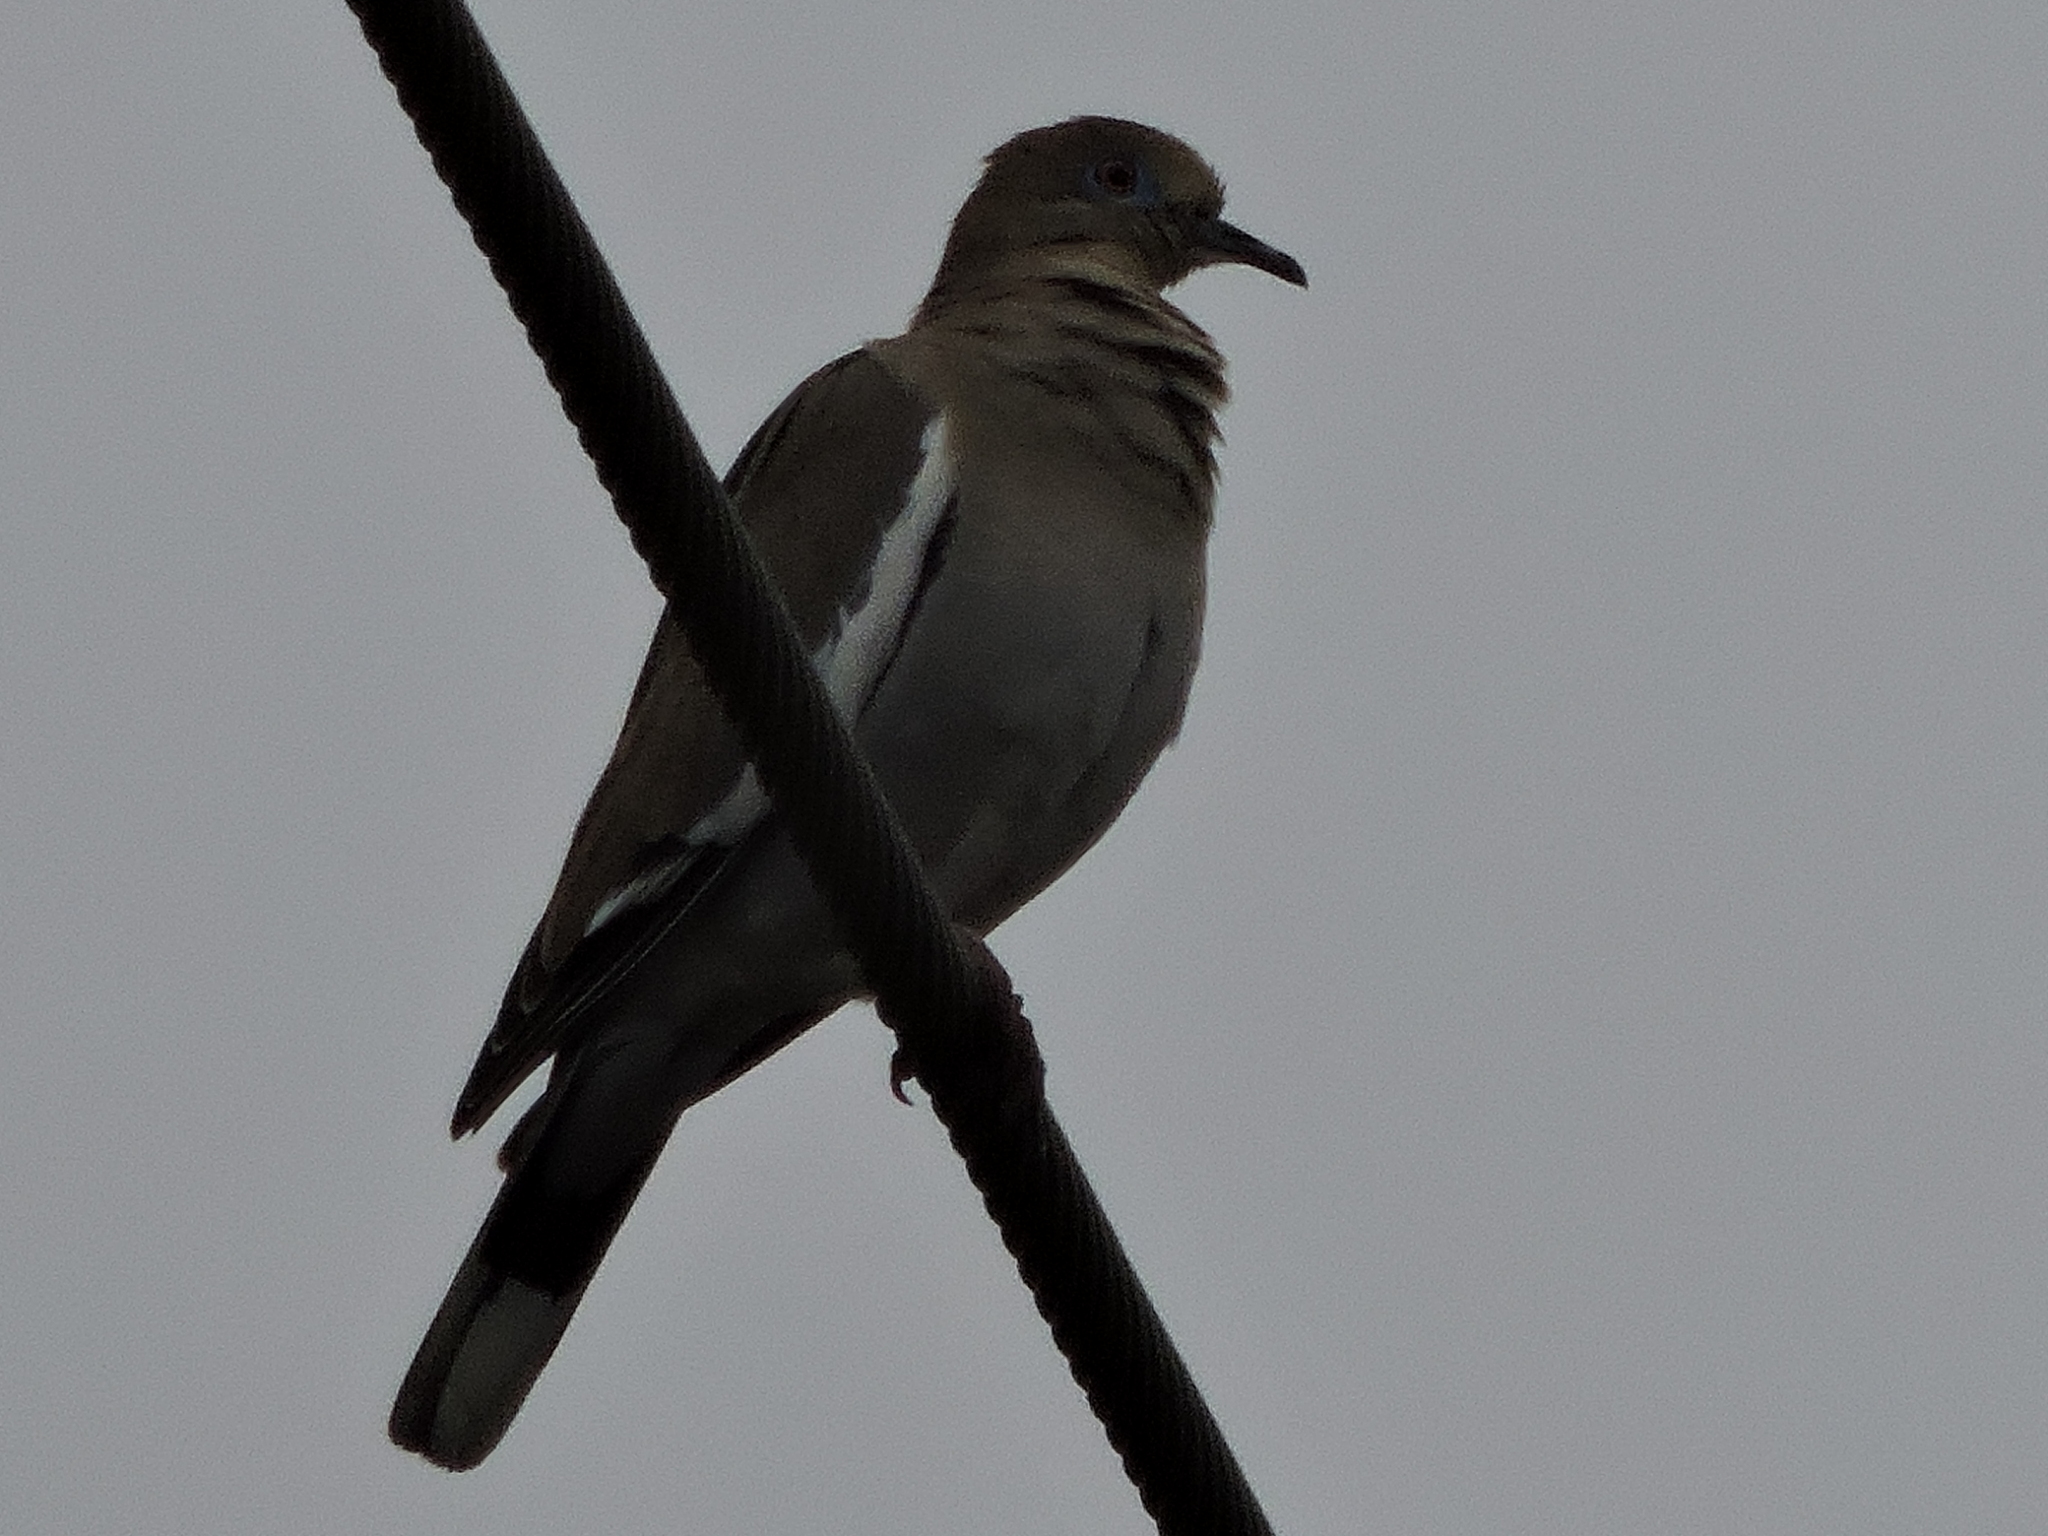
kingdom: Animalia
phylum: Chordata
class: Aves
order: Columbiformes
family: Columbidae
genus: Zenaida
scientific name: Zenaida asiatica
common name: White-winged dove
